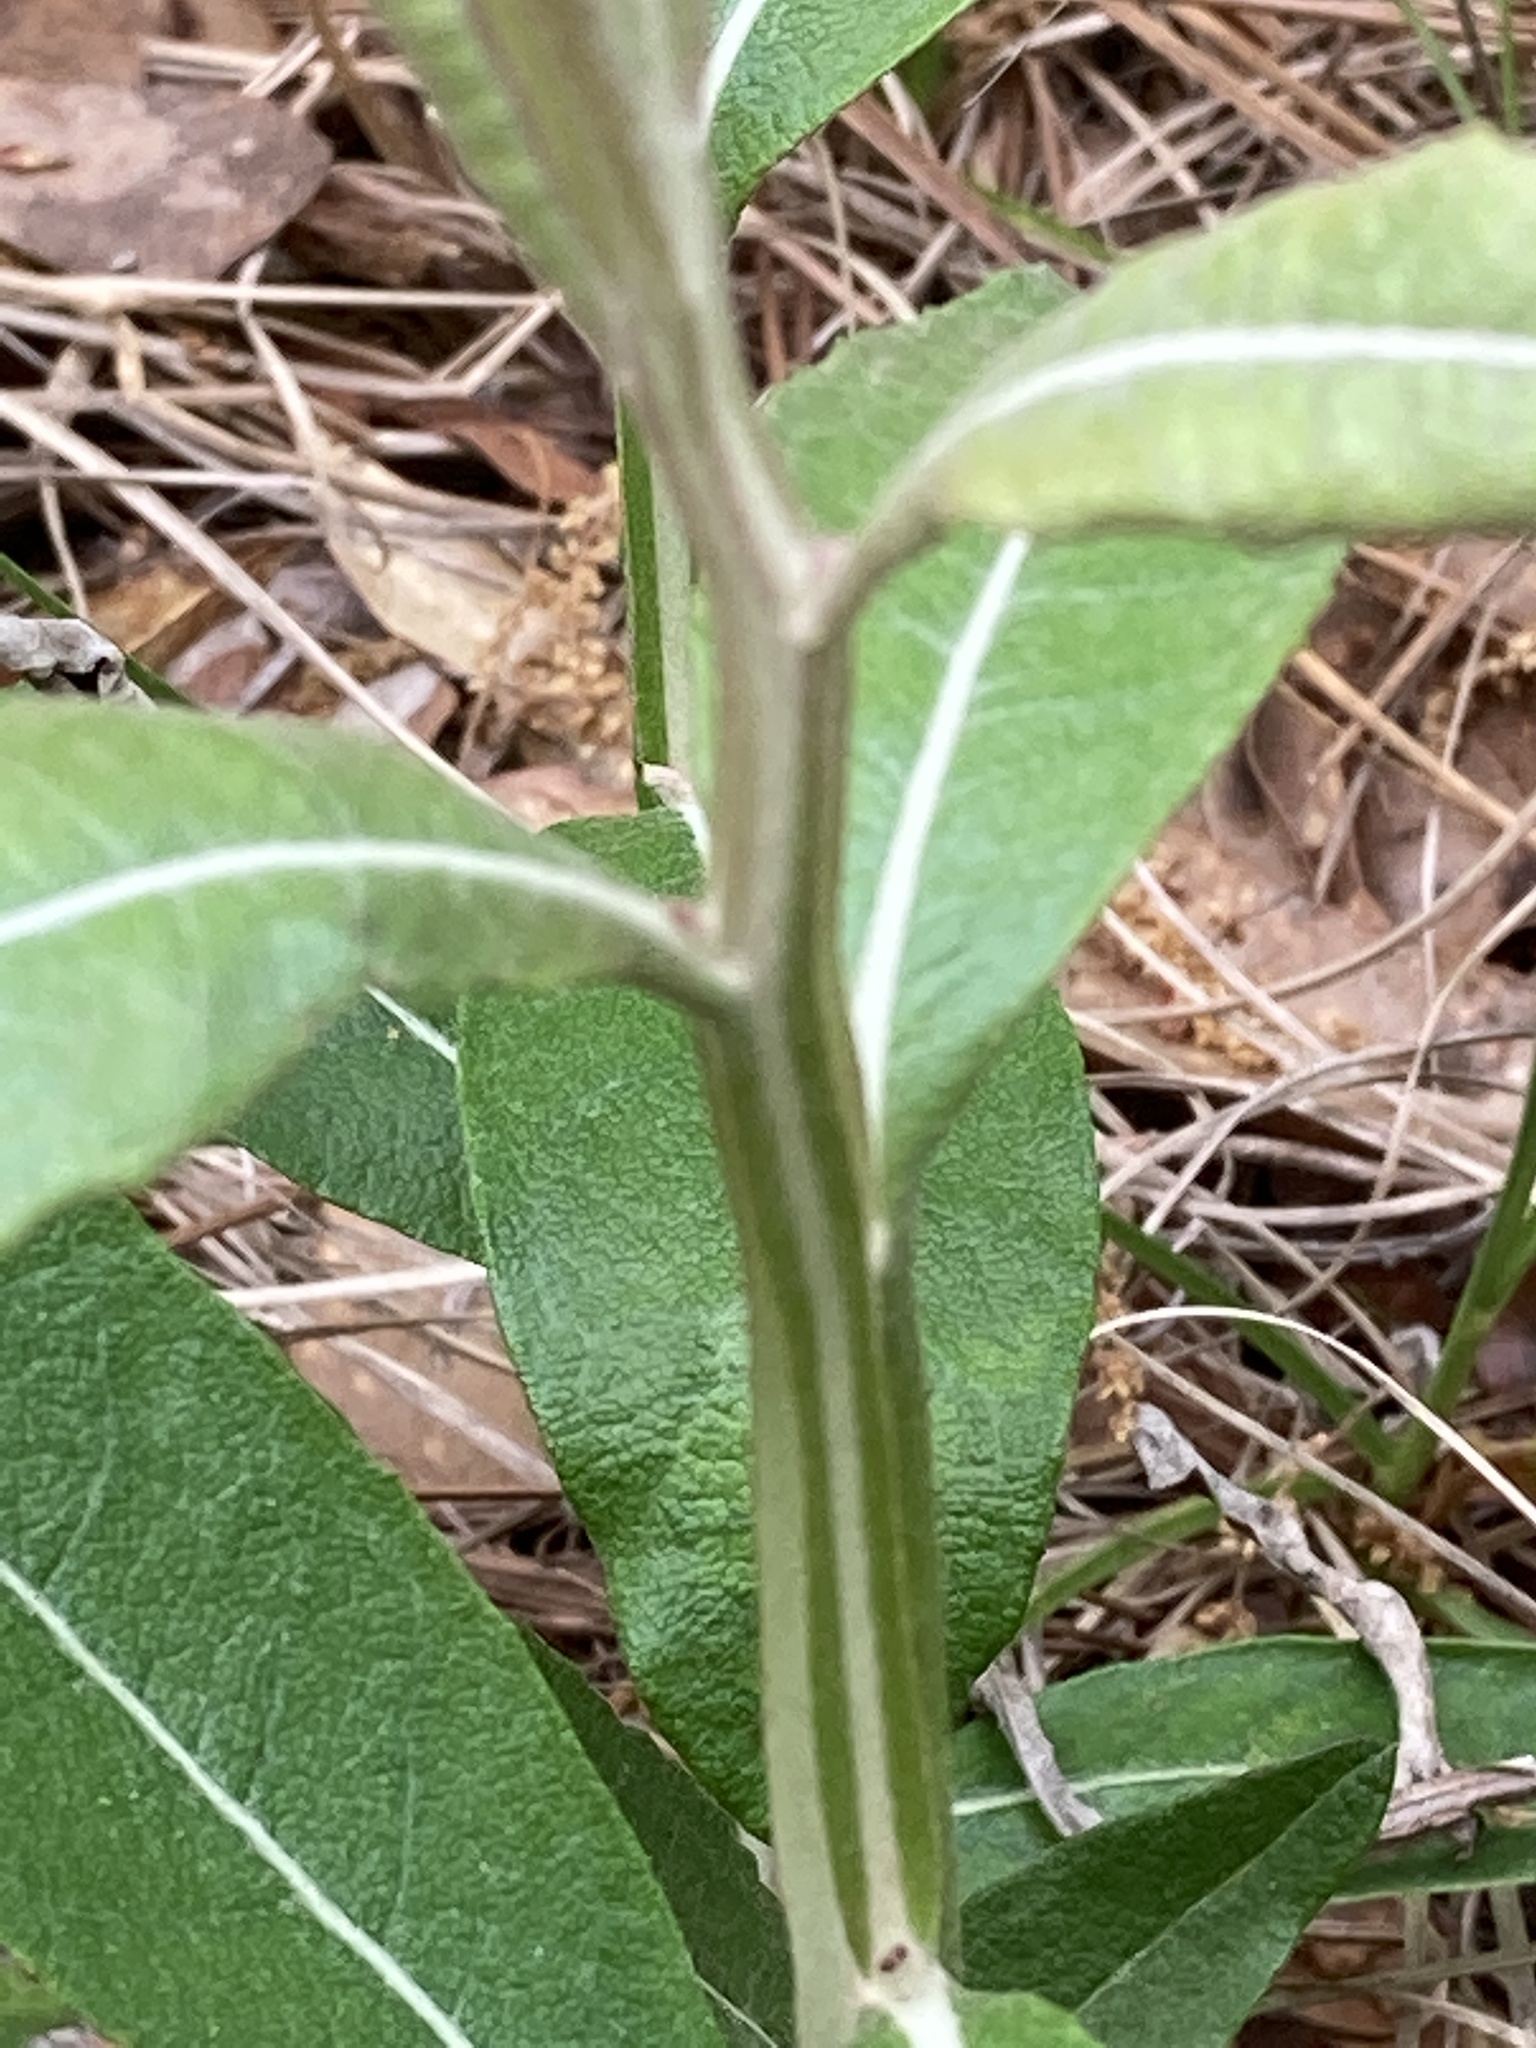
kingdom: Plantae
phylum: Tracheophyta
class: Magnoliopsida
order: Asterales
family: Asteraceae
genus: Pterocaulon
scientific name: Pterocaulon pycnostachyum
